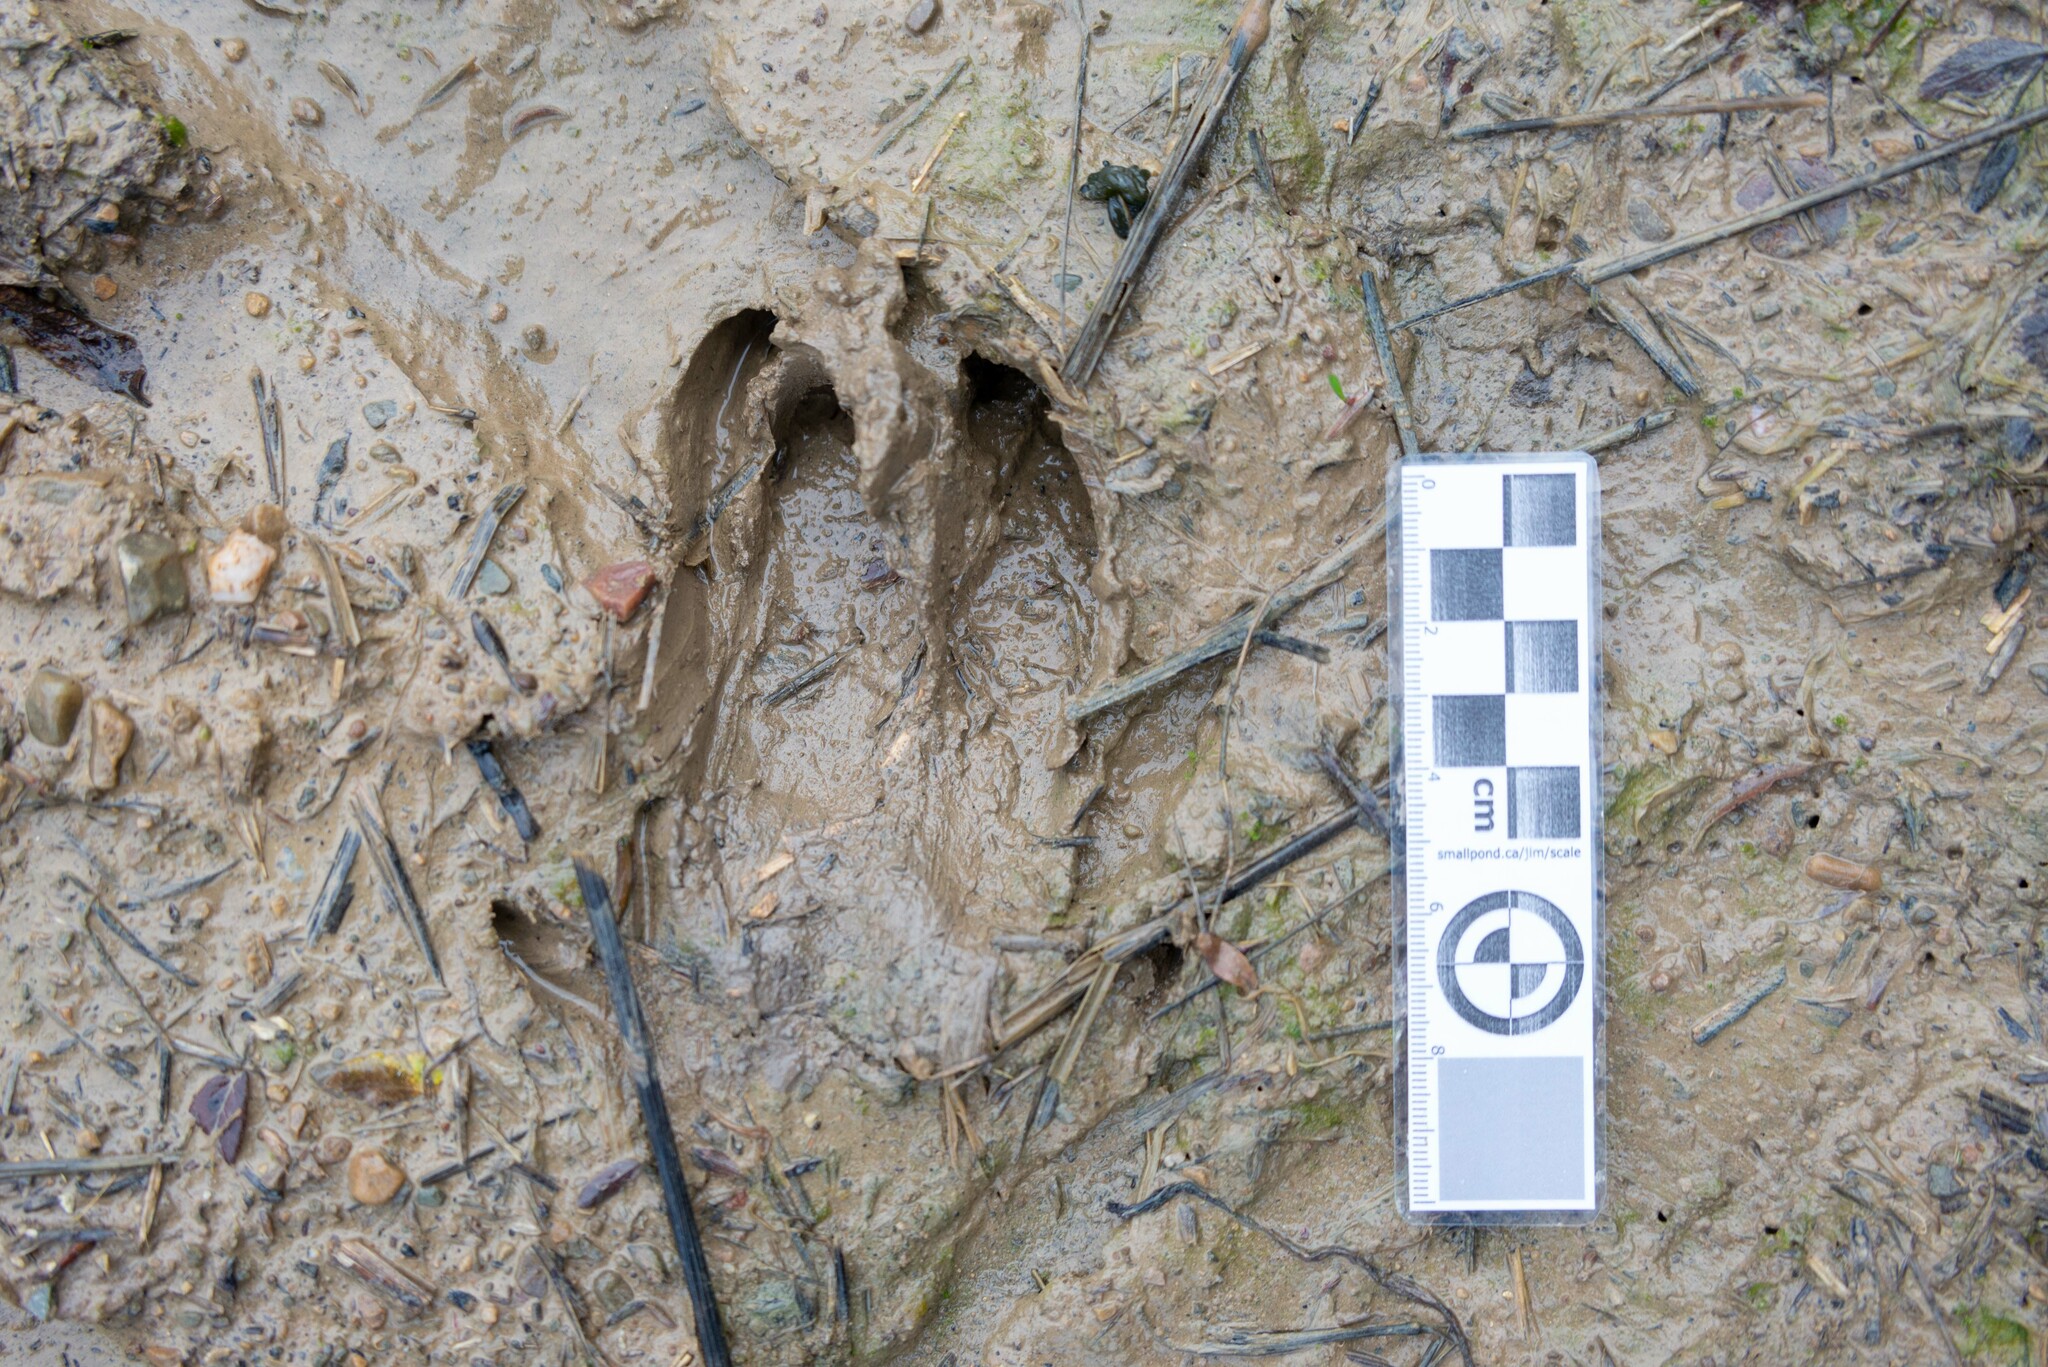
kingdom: Animalia
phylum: Chordata
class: Mammalia
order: Artiodactyla
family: Suidae
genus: Sus
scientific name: Sus scrofa
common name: Wild boar
